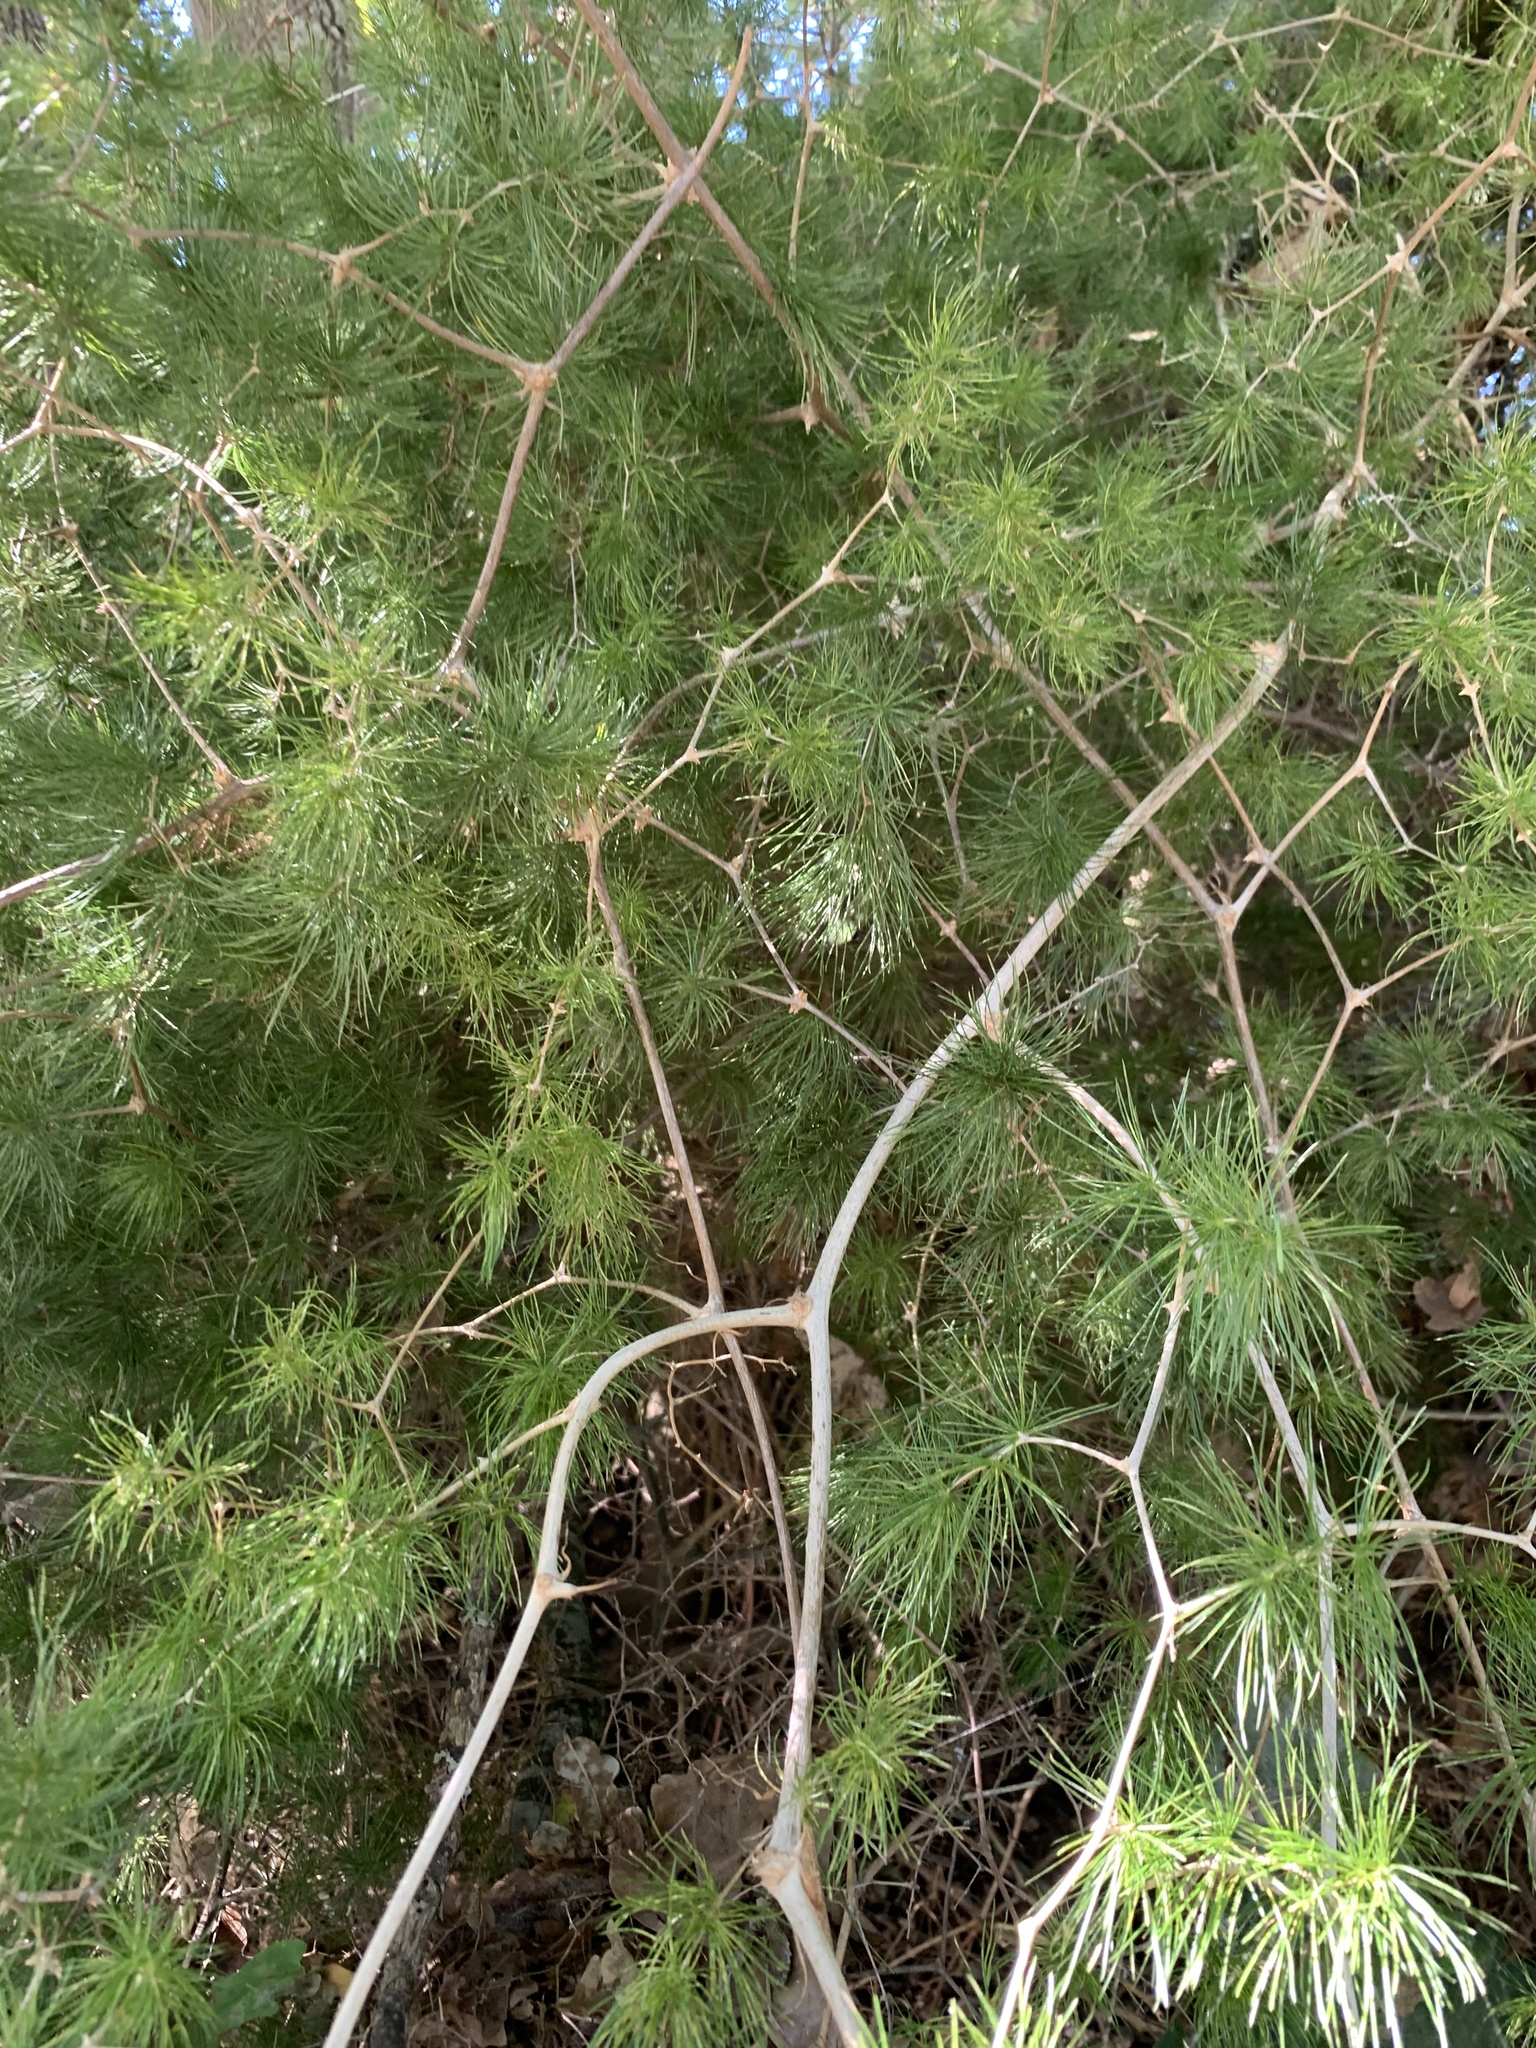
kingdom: Plantae
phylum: Tracheophyta
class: Liliopsida
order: Asparagales
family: Asparagaceae
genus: Asparagus
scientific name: Asparagus retrofractus
